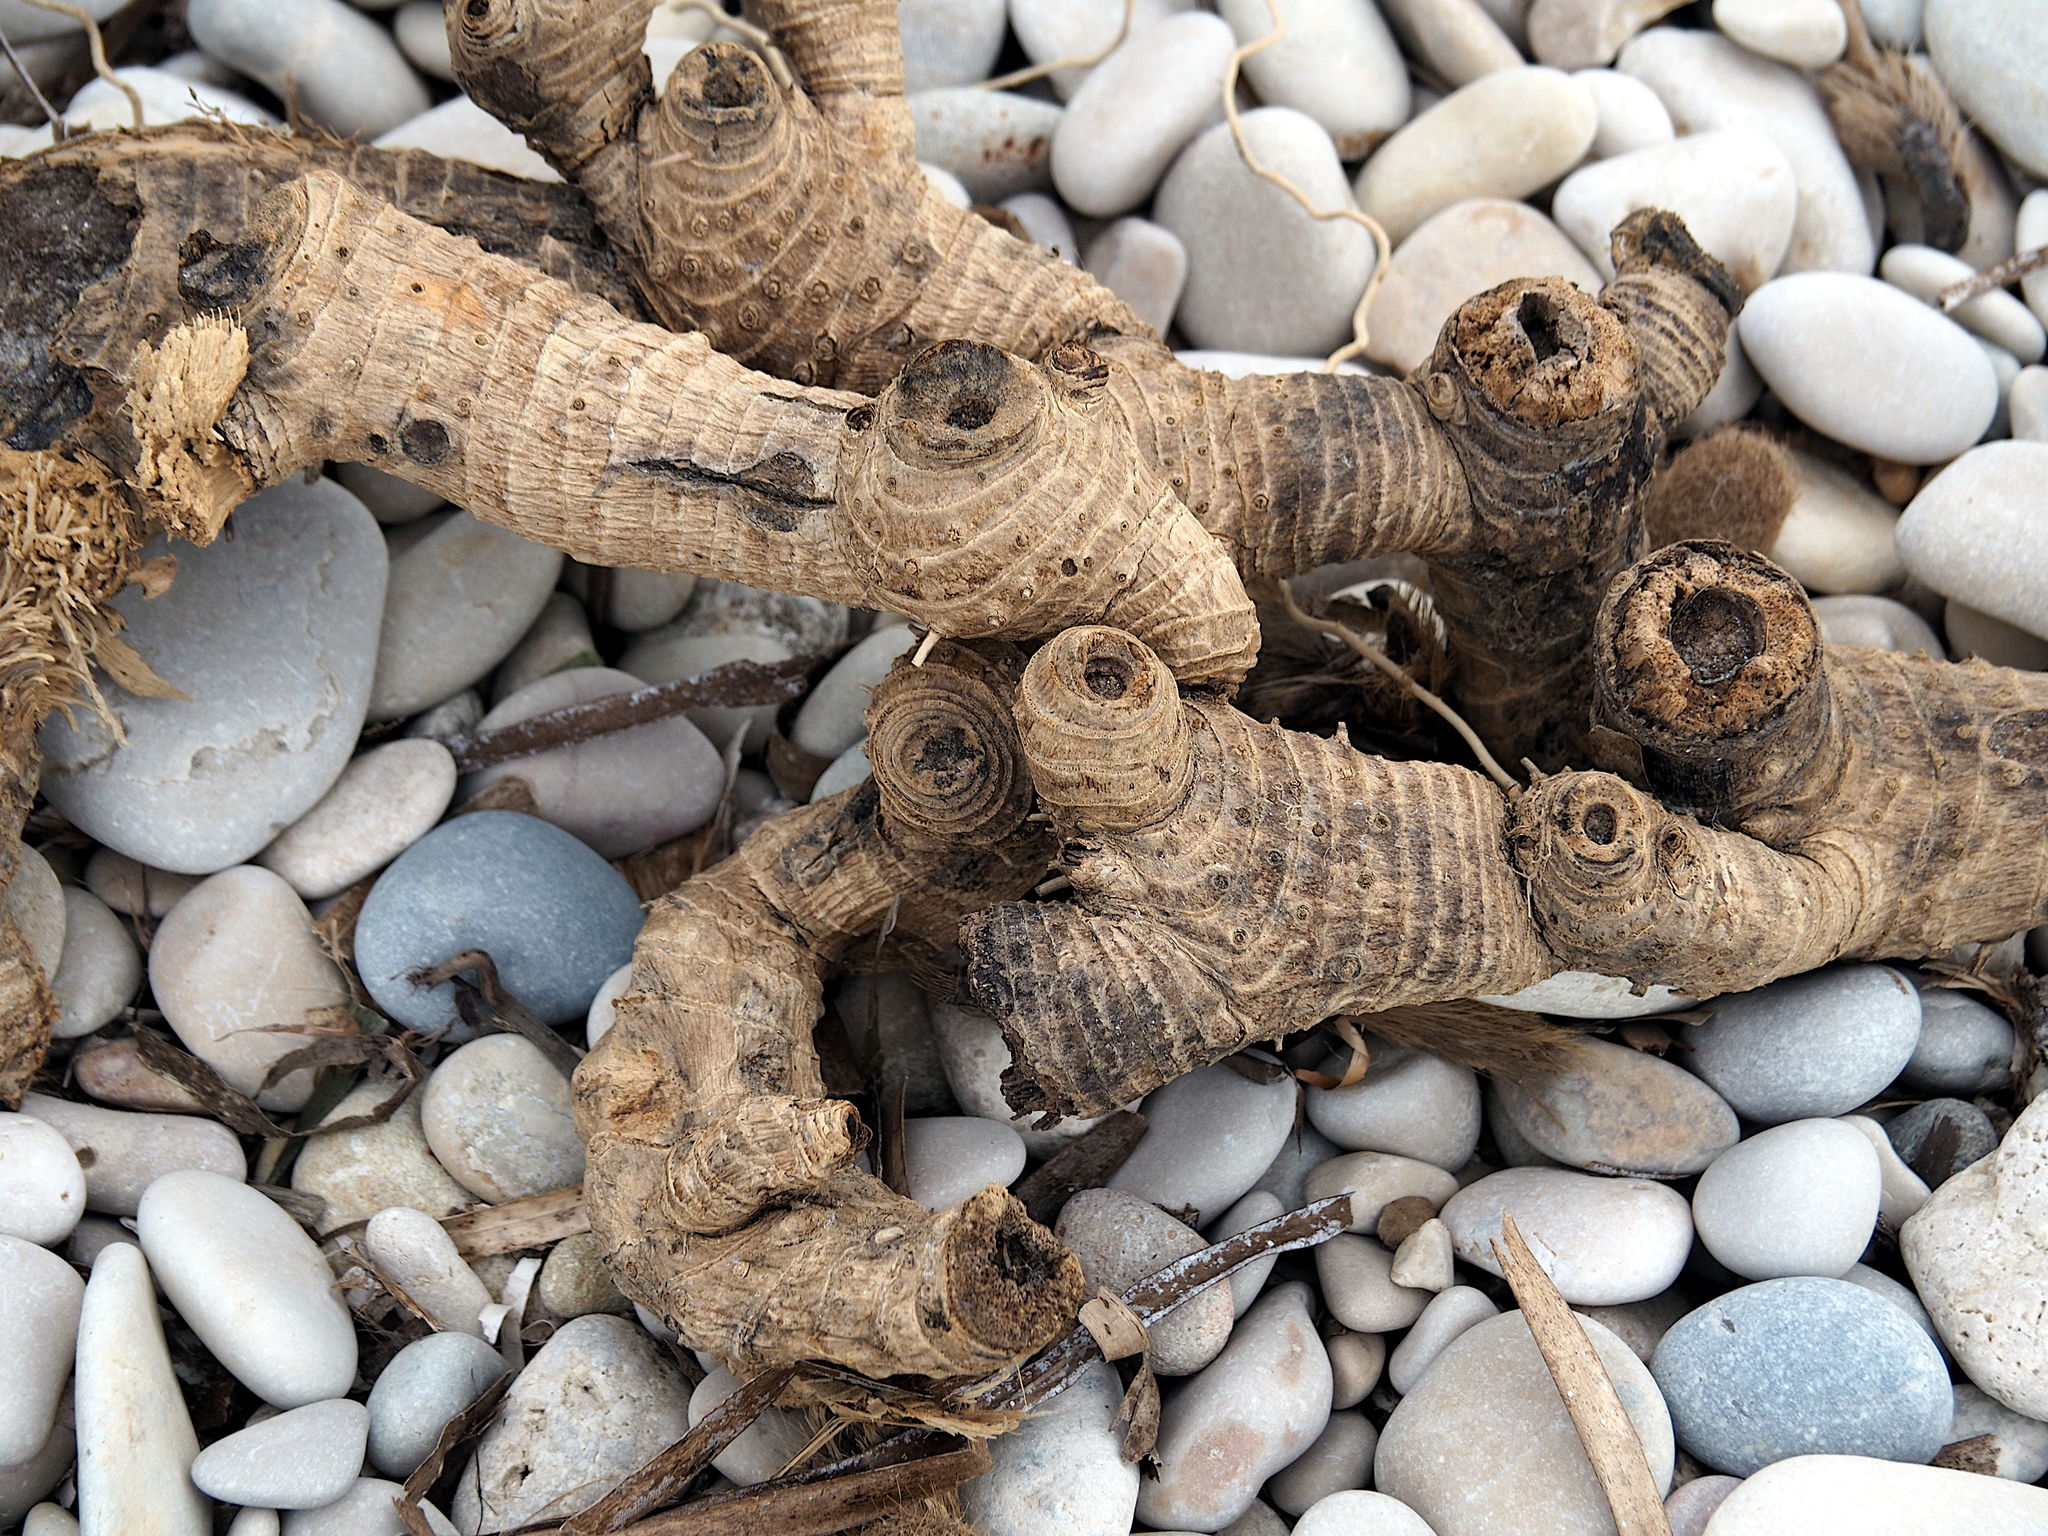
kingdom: Plantae
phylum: Tracheophyta
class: Liliopsida
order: Poales
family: Poaceae
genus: Arundo
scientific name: Arundo donax
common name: Giant reed
